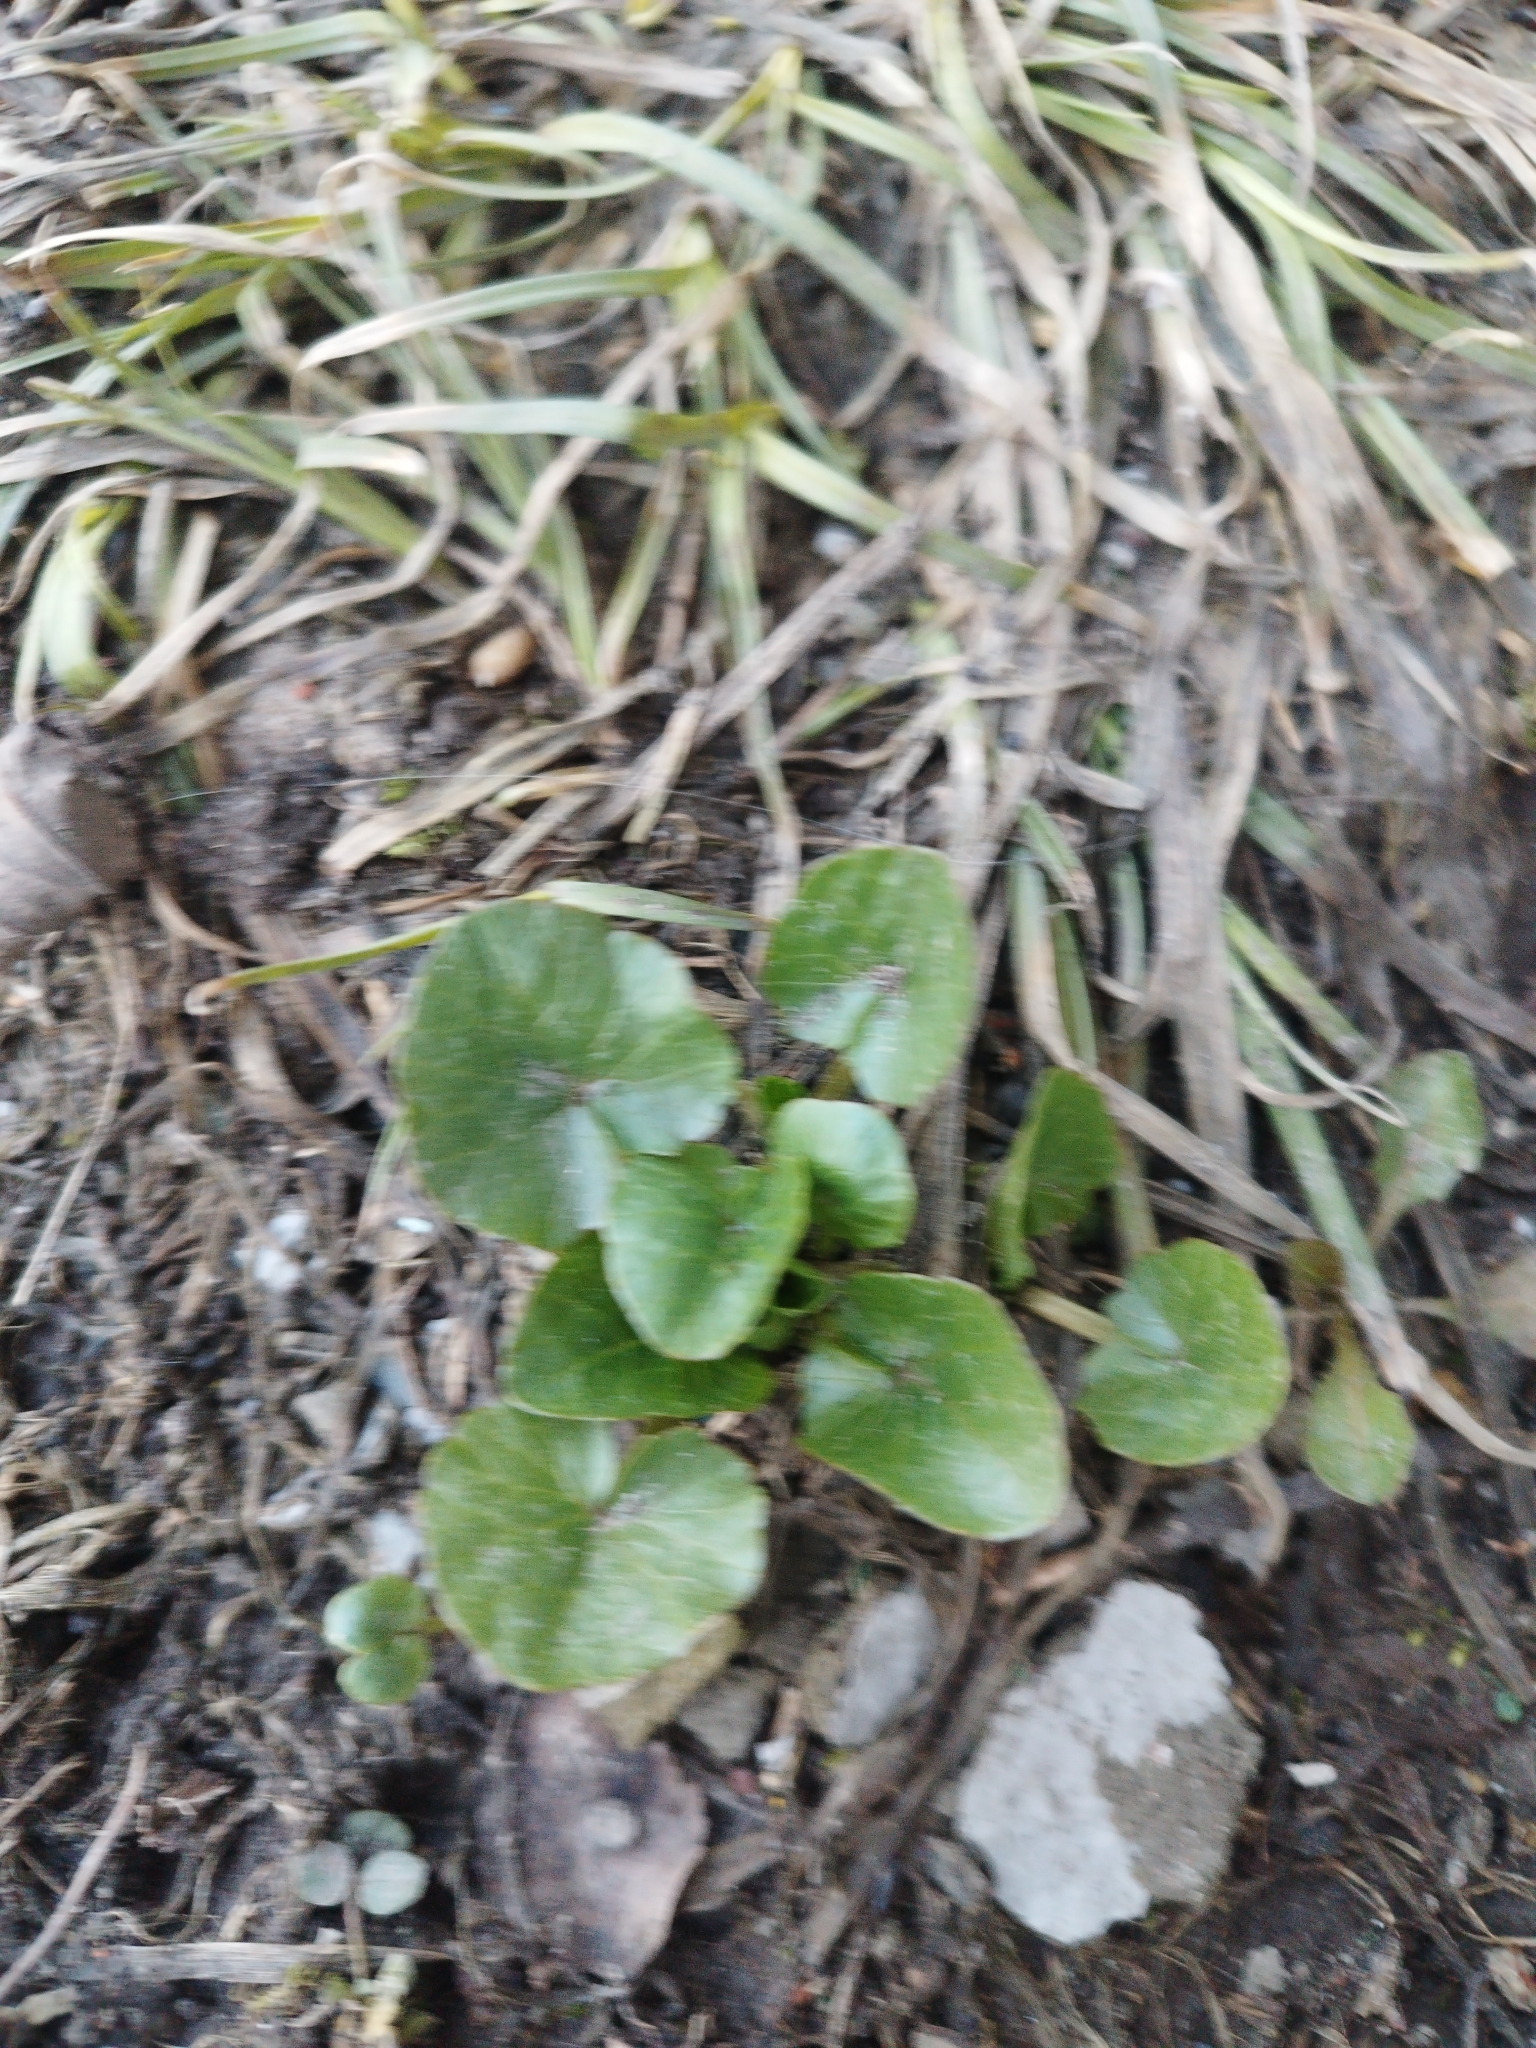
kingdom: Plantae
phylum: Tracheophyta
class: Magnoliopsida
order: Ranunculales
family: Ranunculaceae
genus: Ficaria
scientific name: Ficaria verna
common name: Lesser celandine
